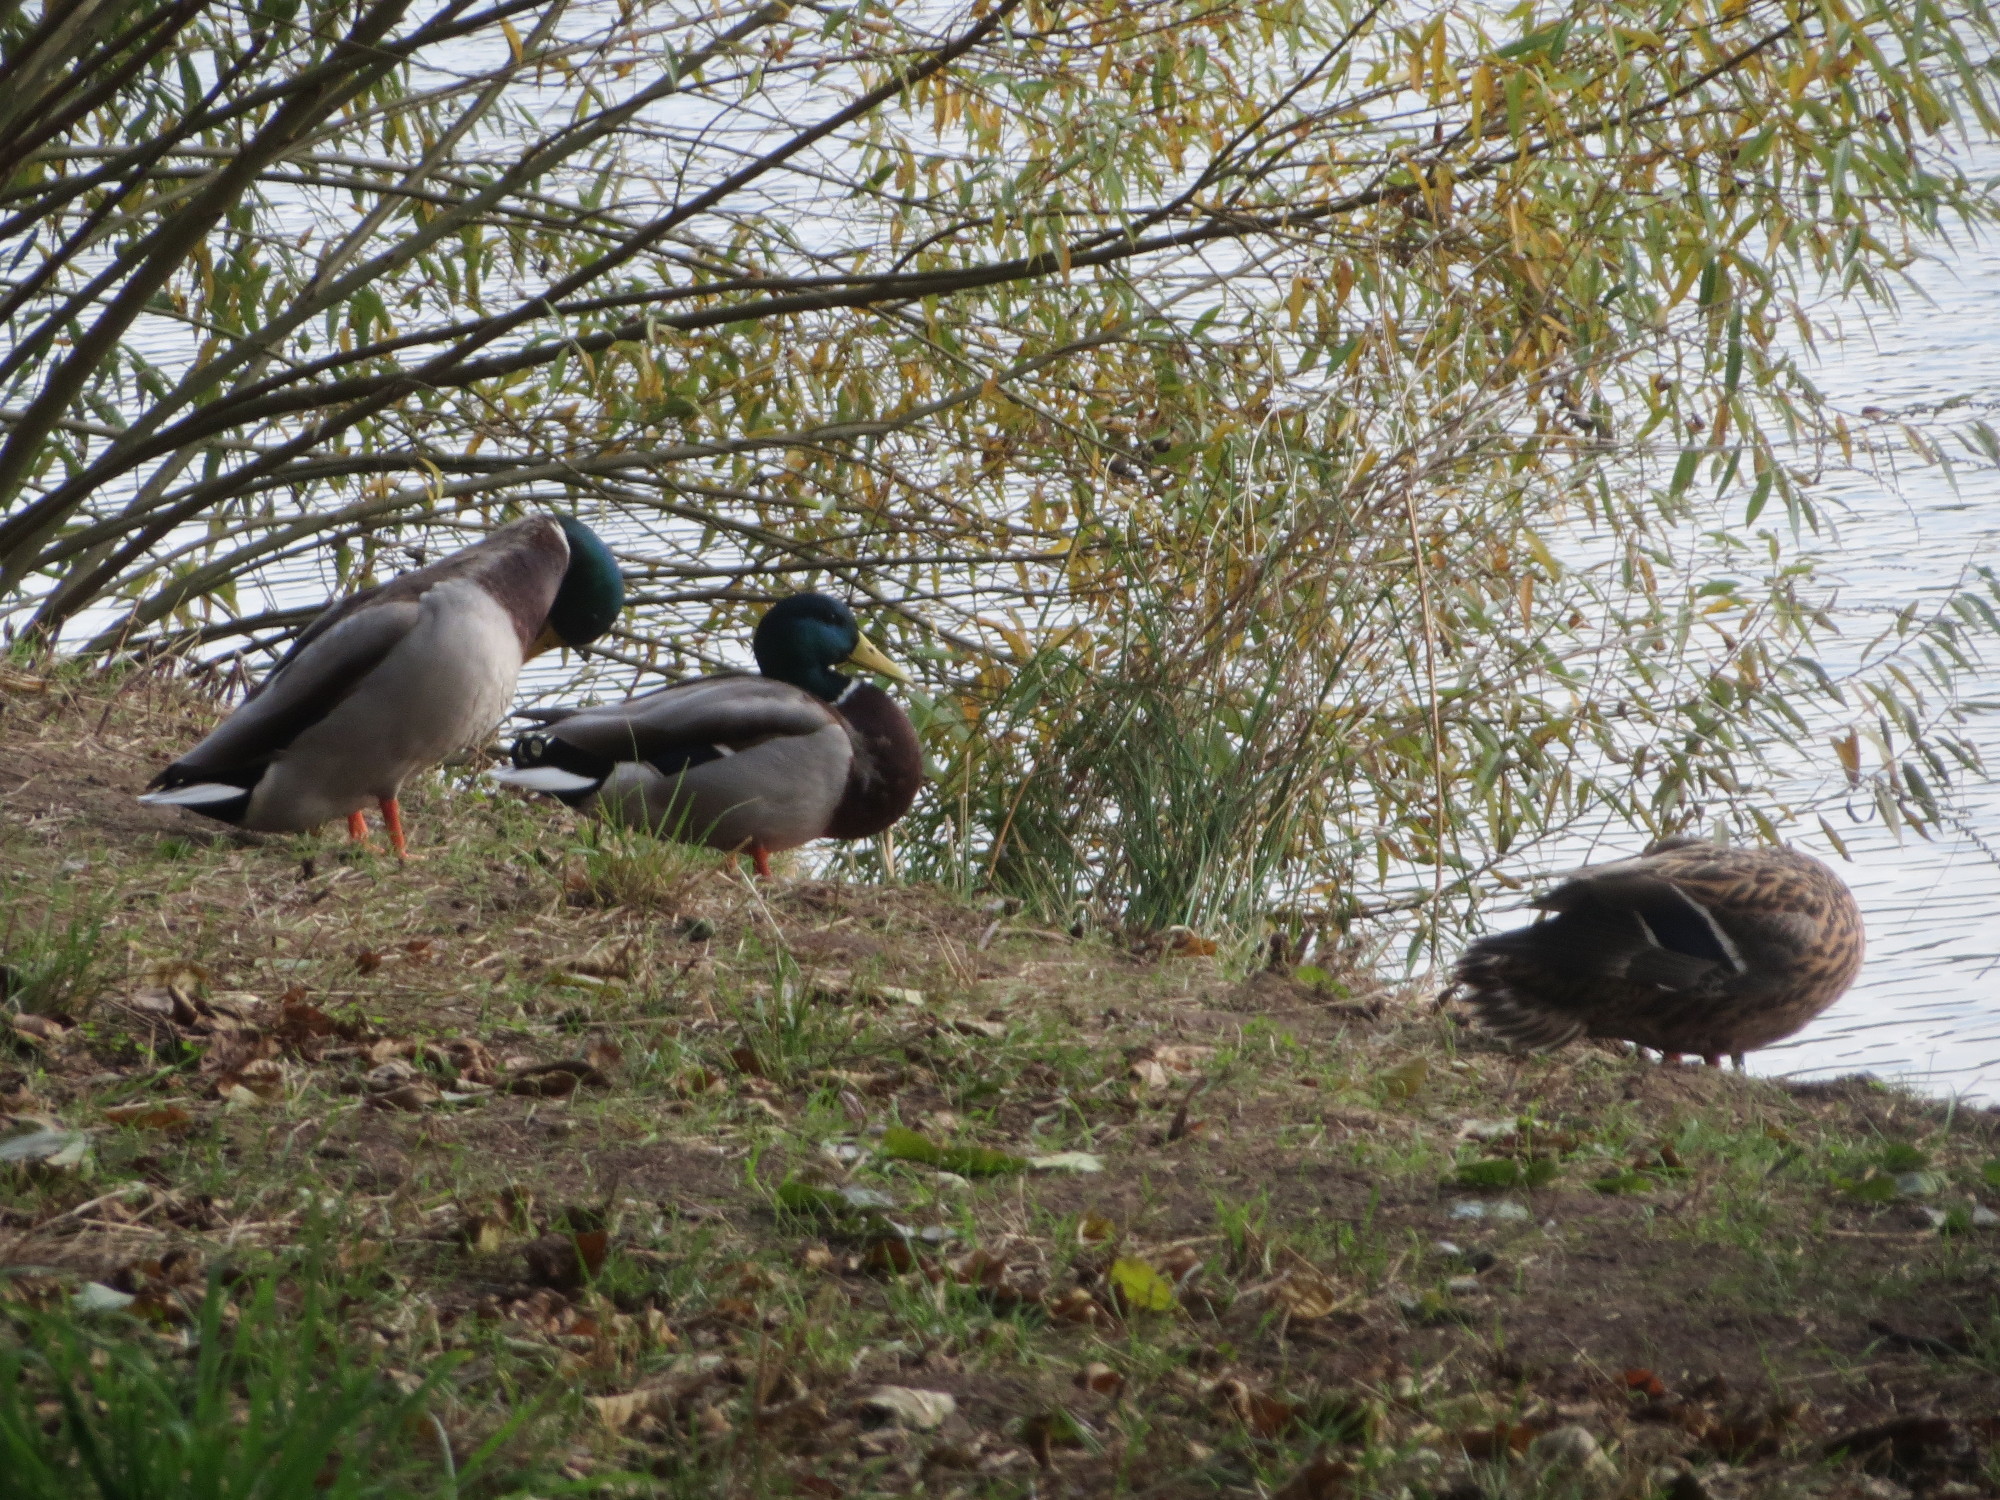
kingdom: Animalia
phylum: Chordata
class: Aves
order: Anseriformes
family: Anatidae
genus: Anas
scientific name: Anas platyrhynchos
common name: Mallard
